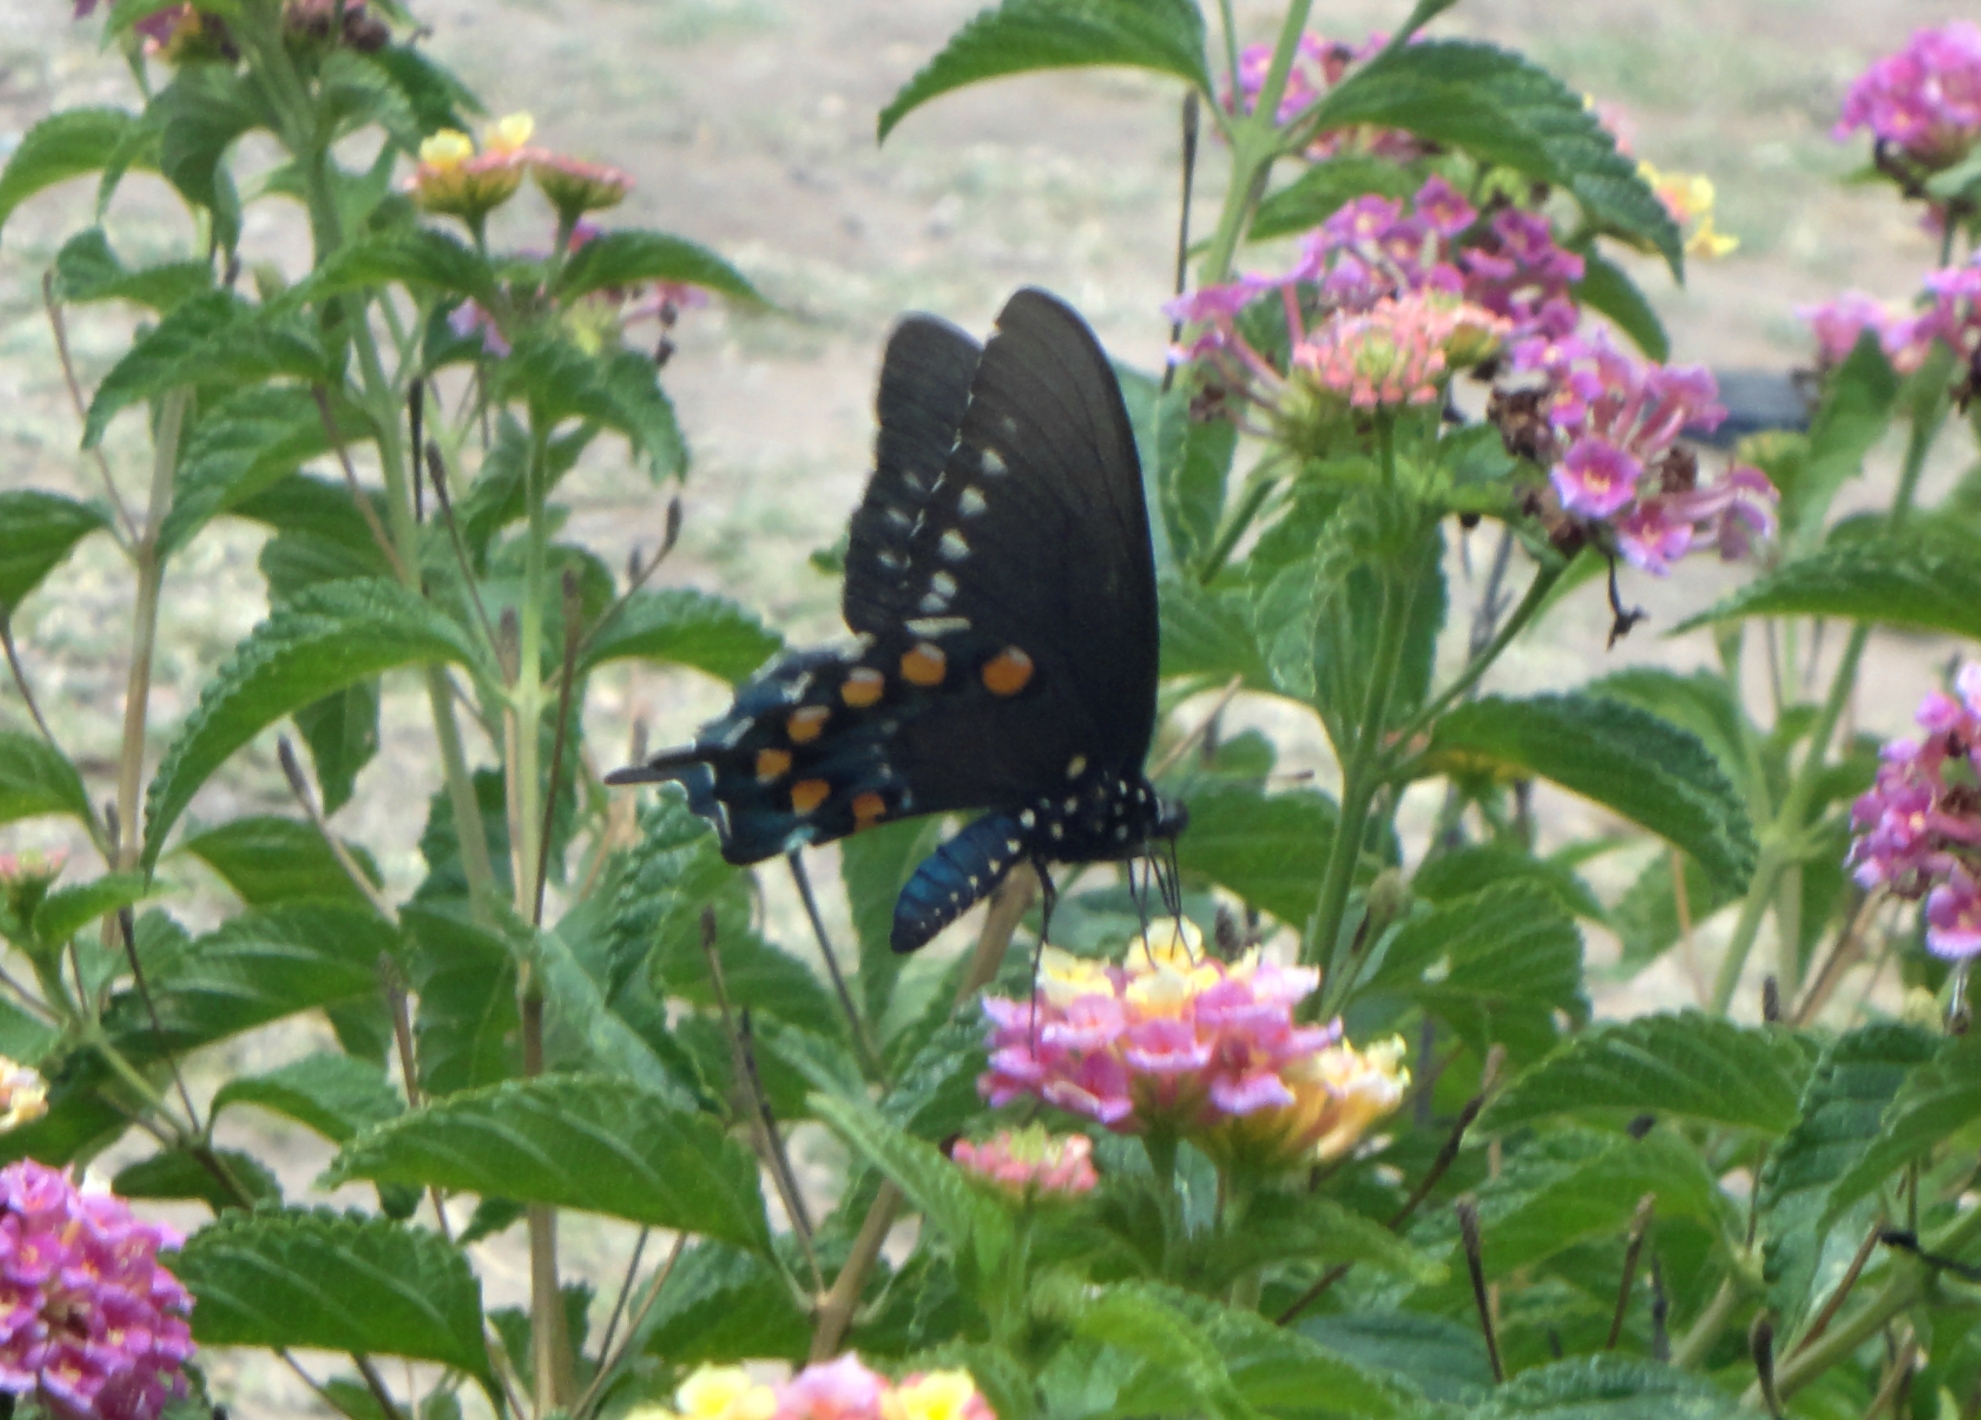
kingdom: Animalia
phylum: Arthropoda
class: Insecta
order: Lepidoptera
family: Papilionidae
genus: Battus
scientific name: Battus philenor
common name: Pipevine swallowtail
